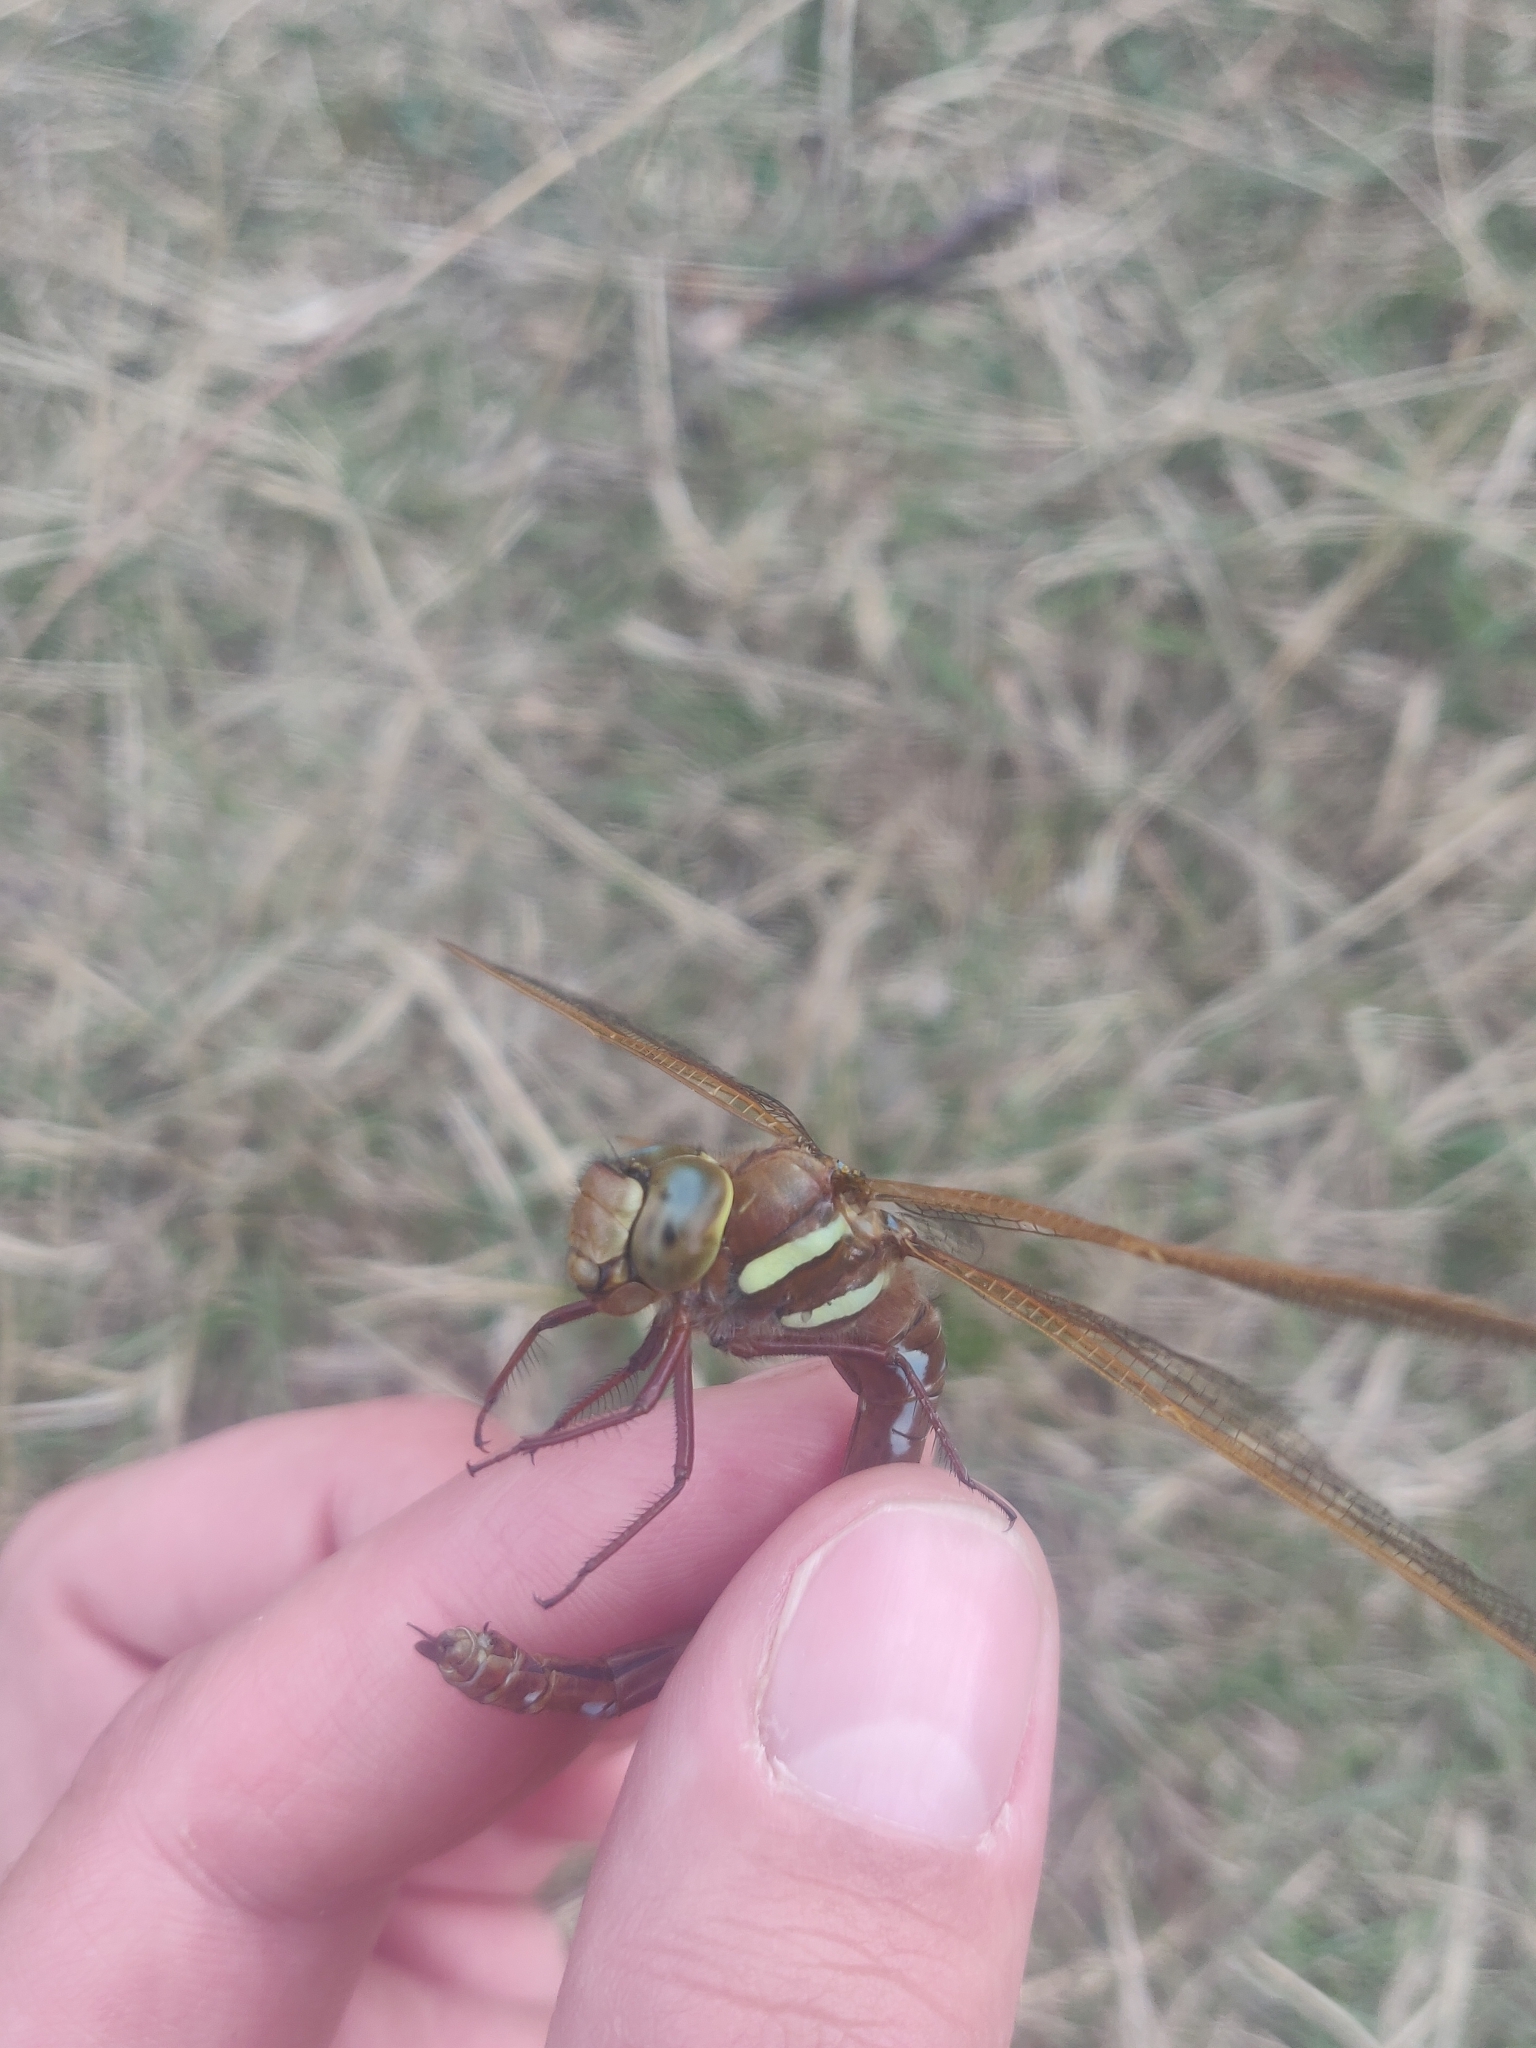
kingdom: Animalia
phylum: Arthropoda
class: Insecta
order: Odonata
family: Aeshnidae
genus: Aeshna
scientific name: Aeshna grandis
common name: Brown hawker
